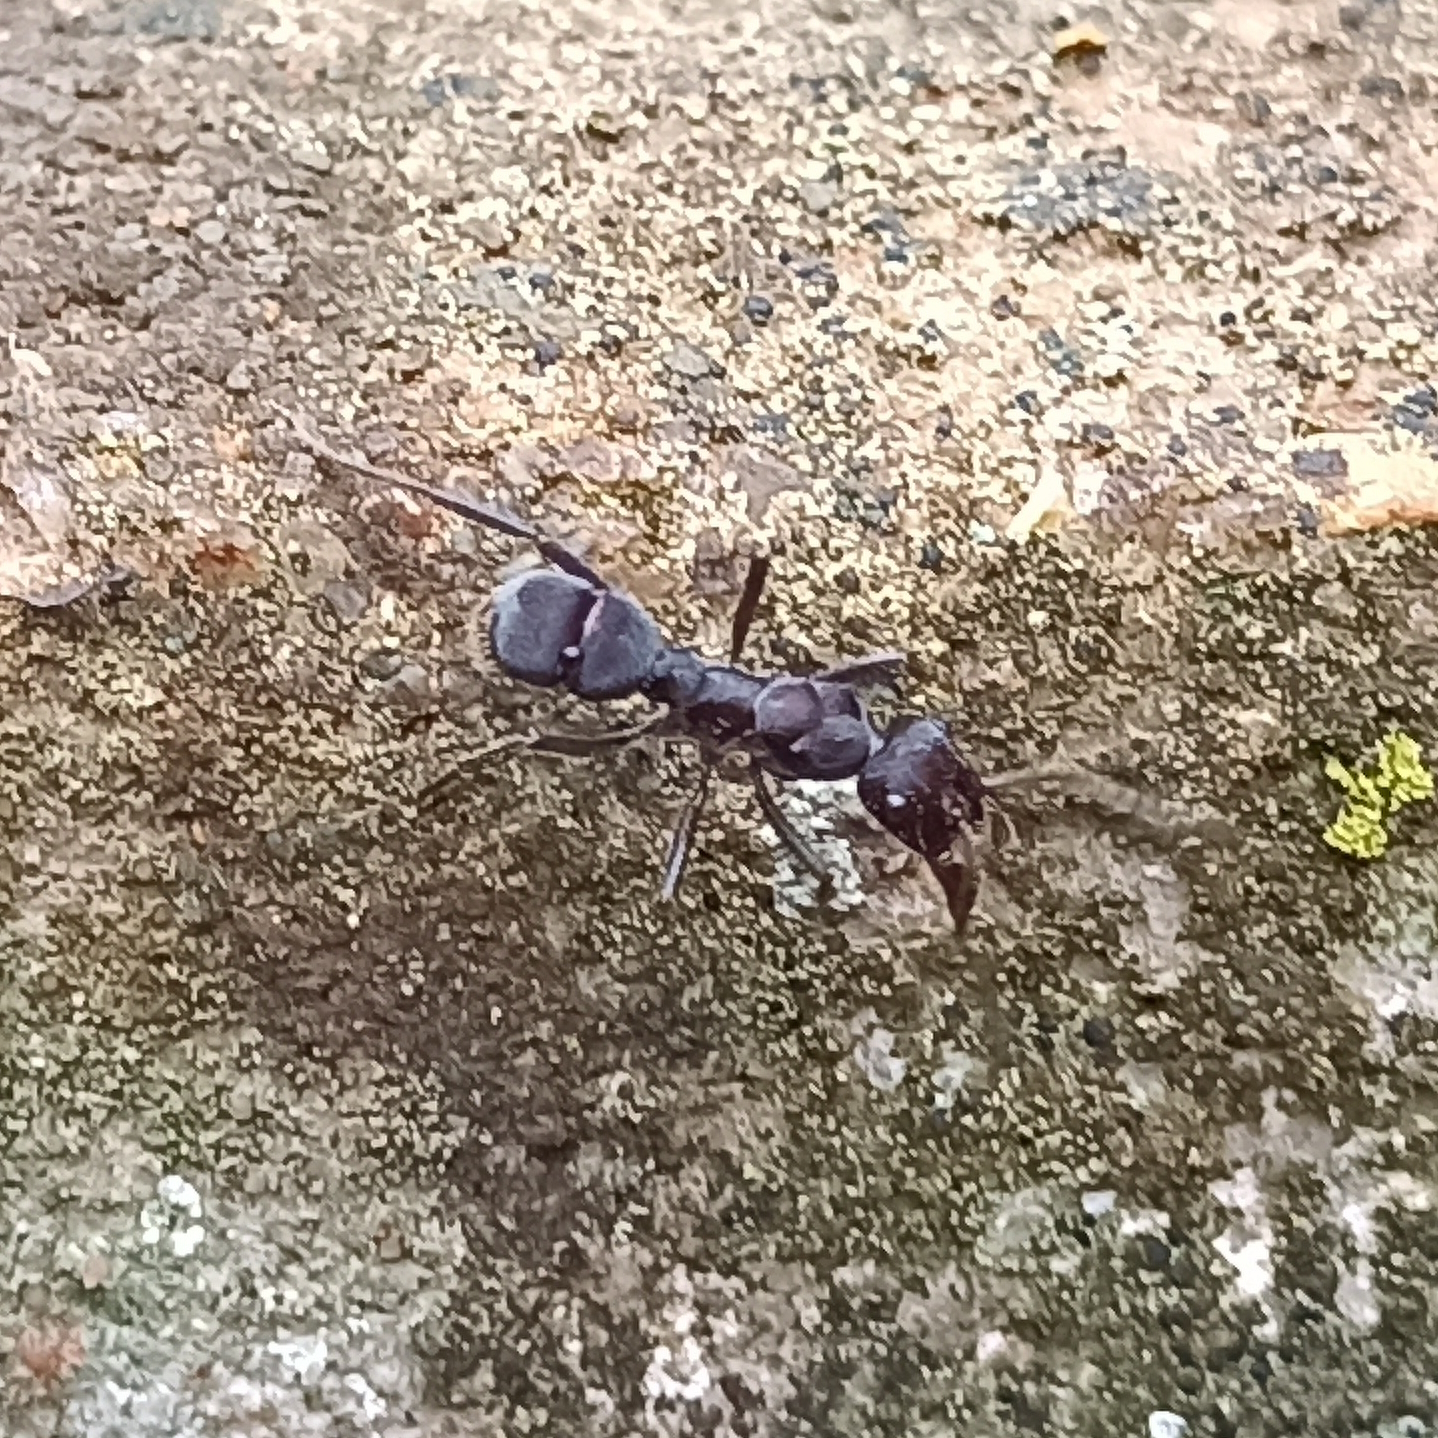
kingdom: Animalia
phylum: Arthropoda
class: Insecta
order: Hymenoptera
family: Formicidae
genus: Ectatomma
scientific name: Ectatomma brunneum
